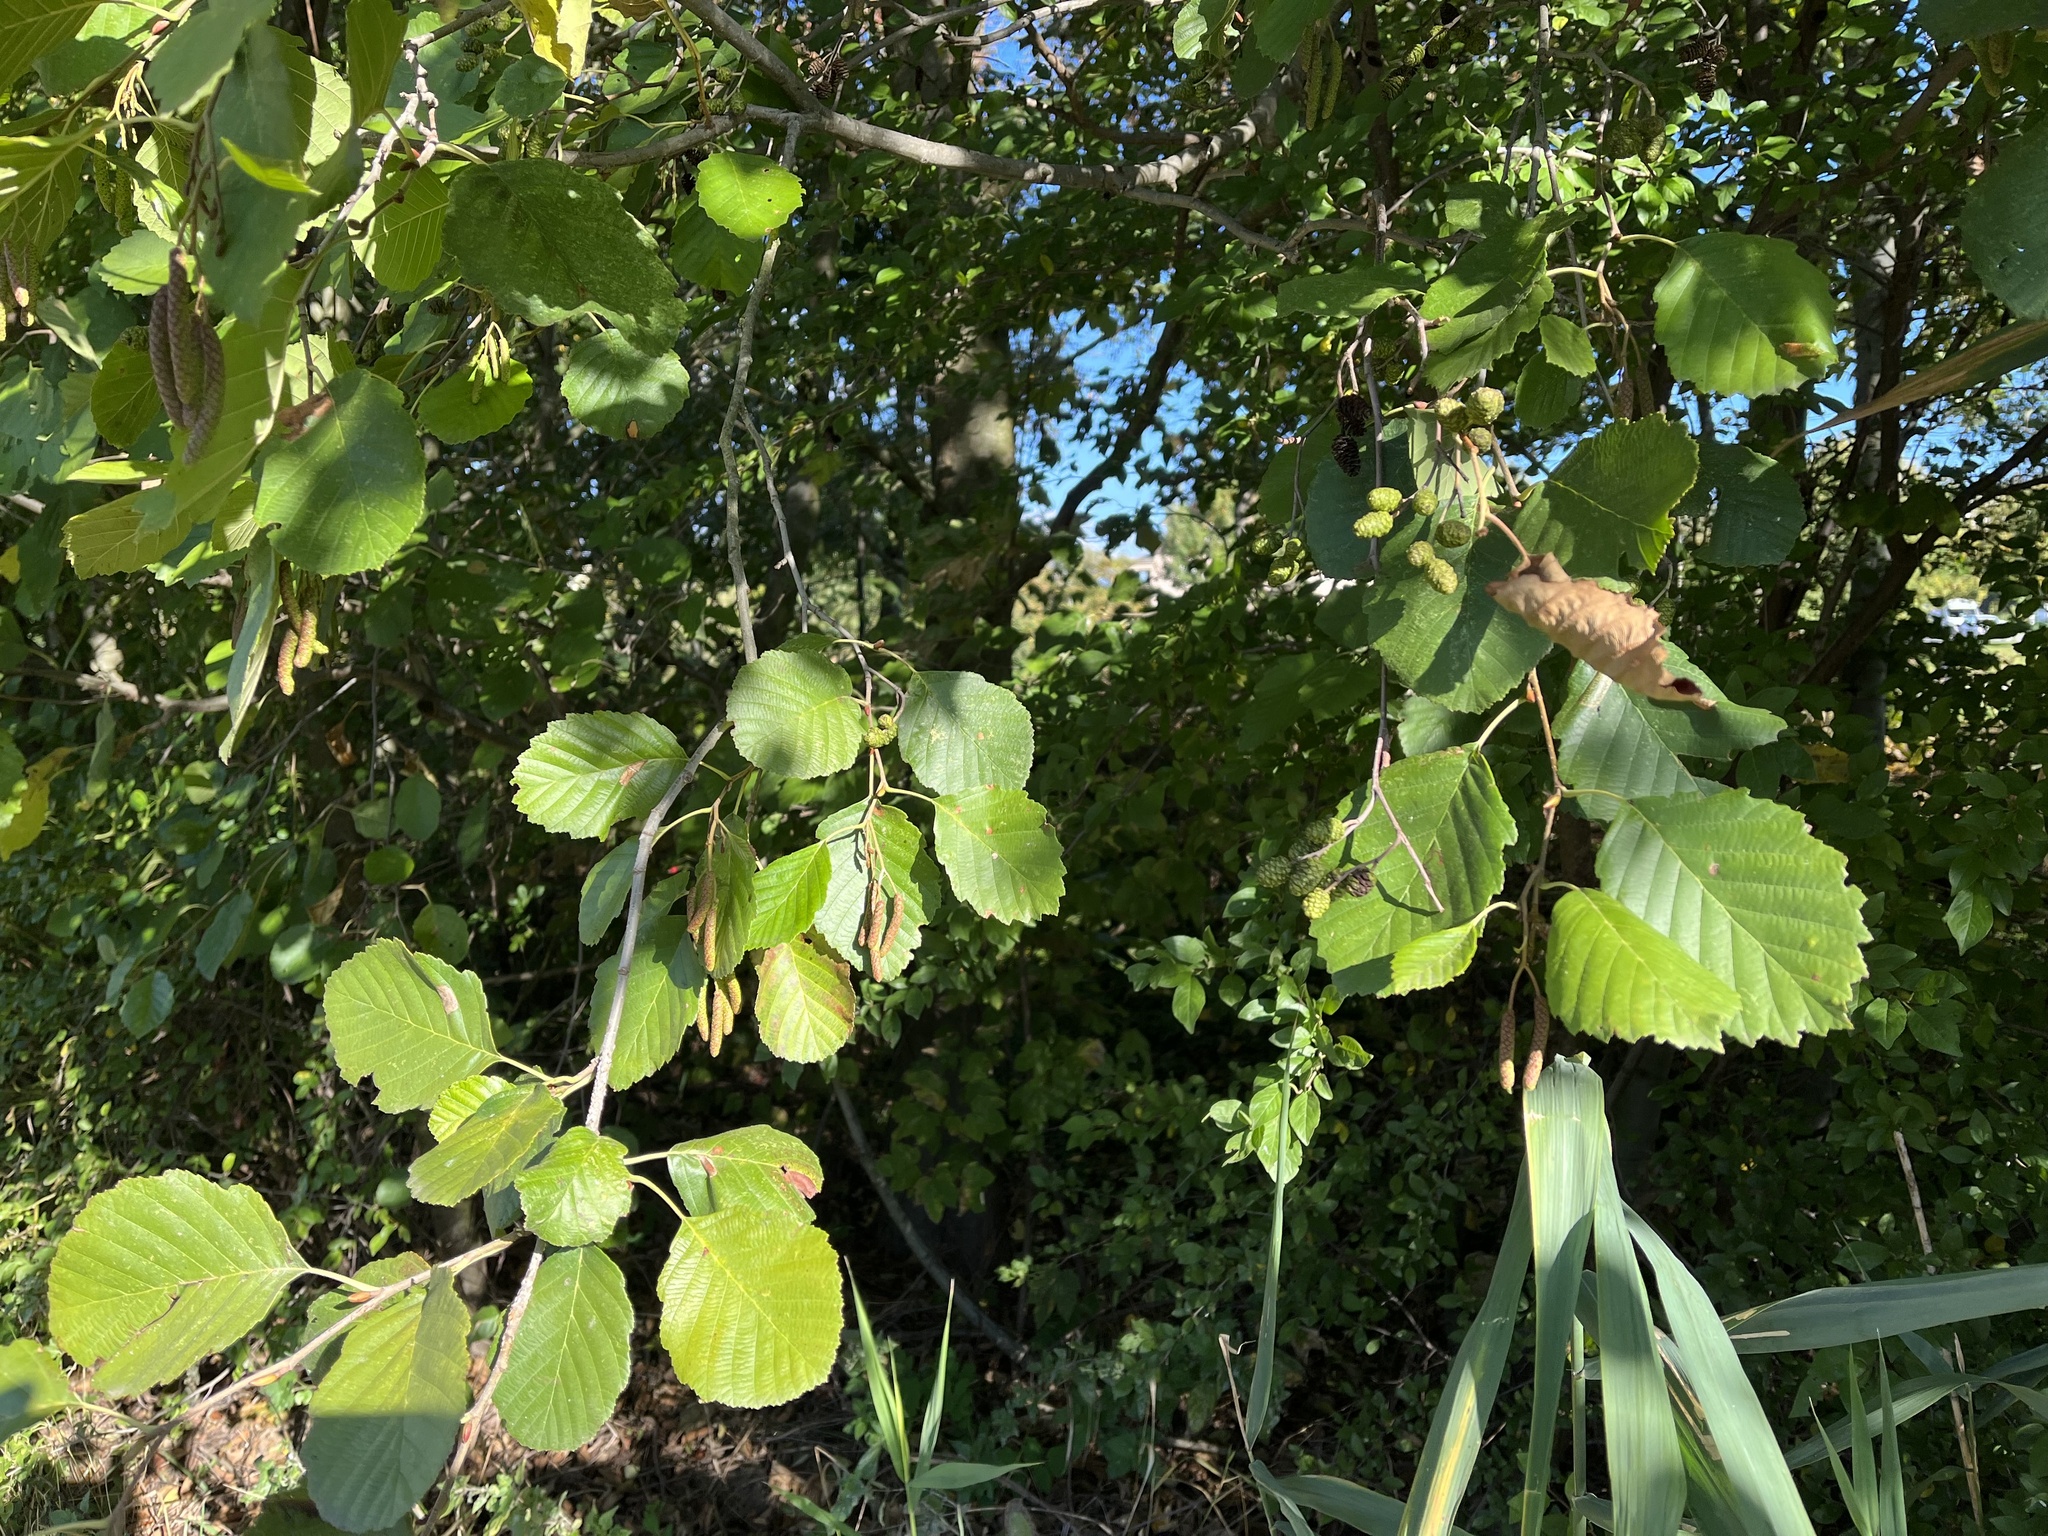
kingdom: Plantae
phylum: Tracheophyta
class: Magnoliopsida
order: Fagales
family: Betulaceae
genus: Alnus
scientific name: Alnus incana
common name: Grey alder
